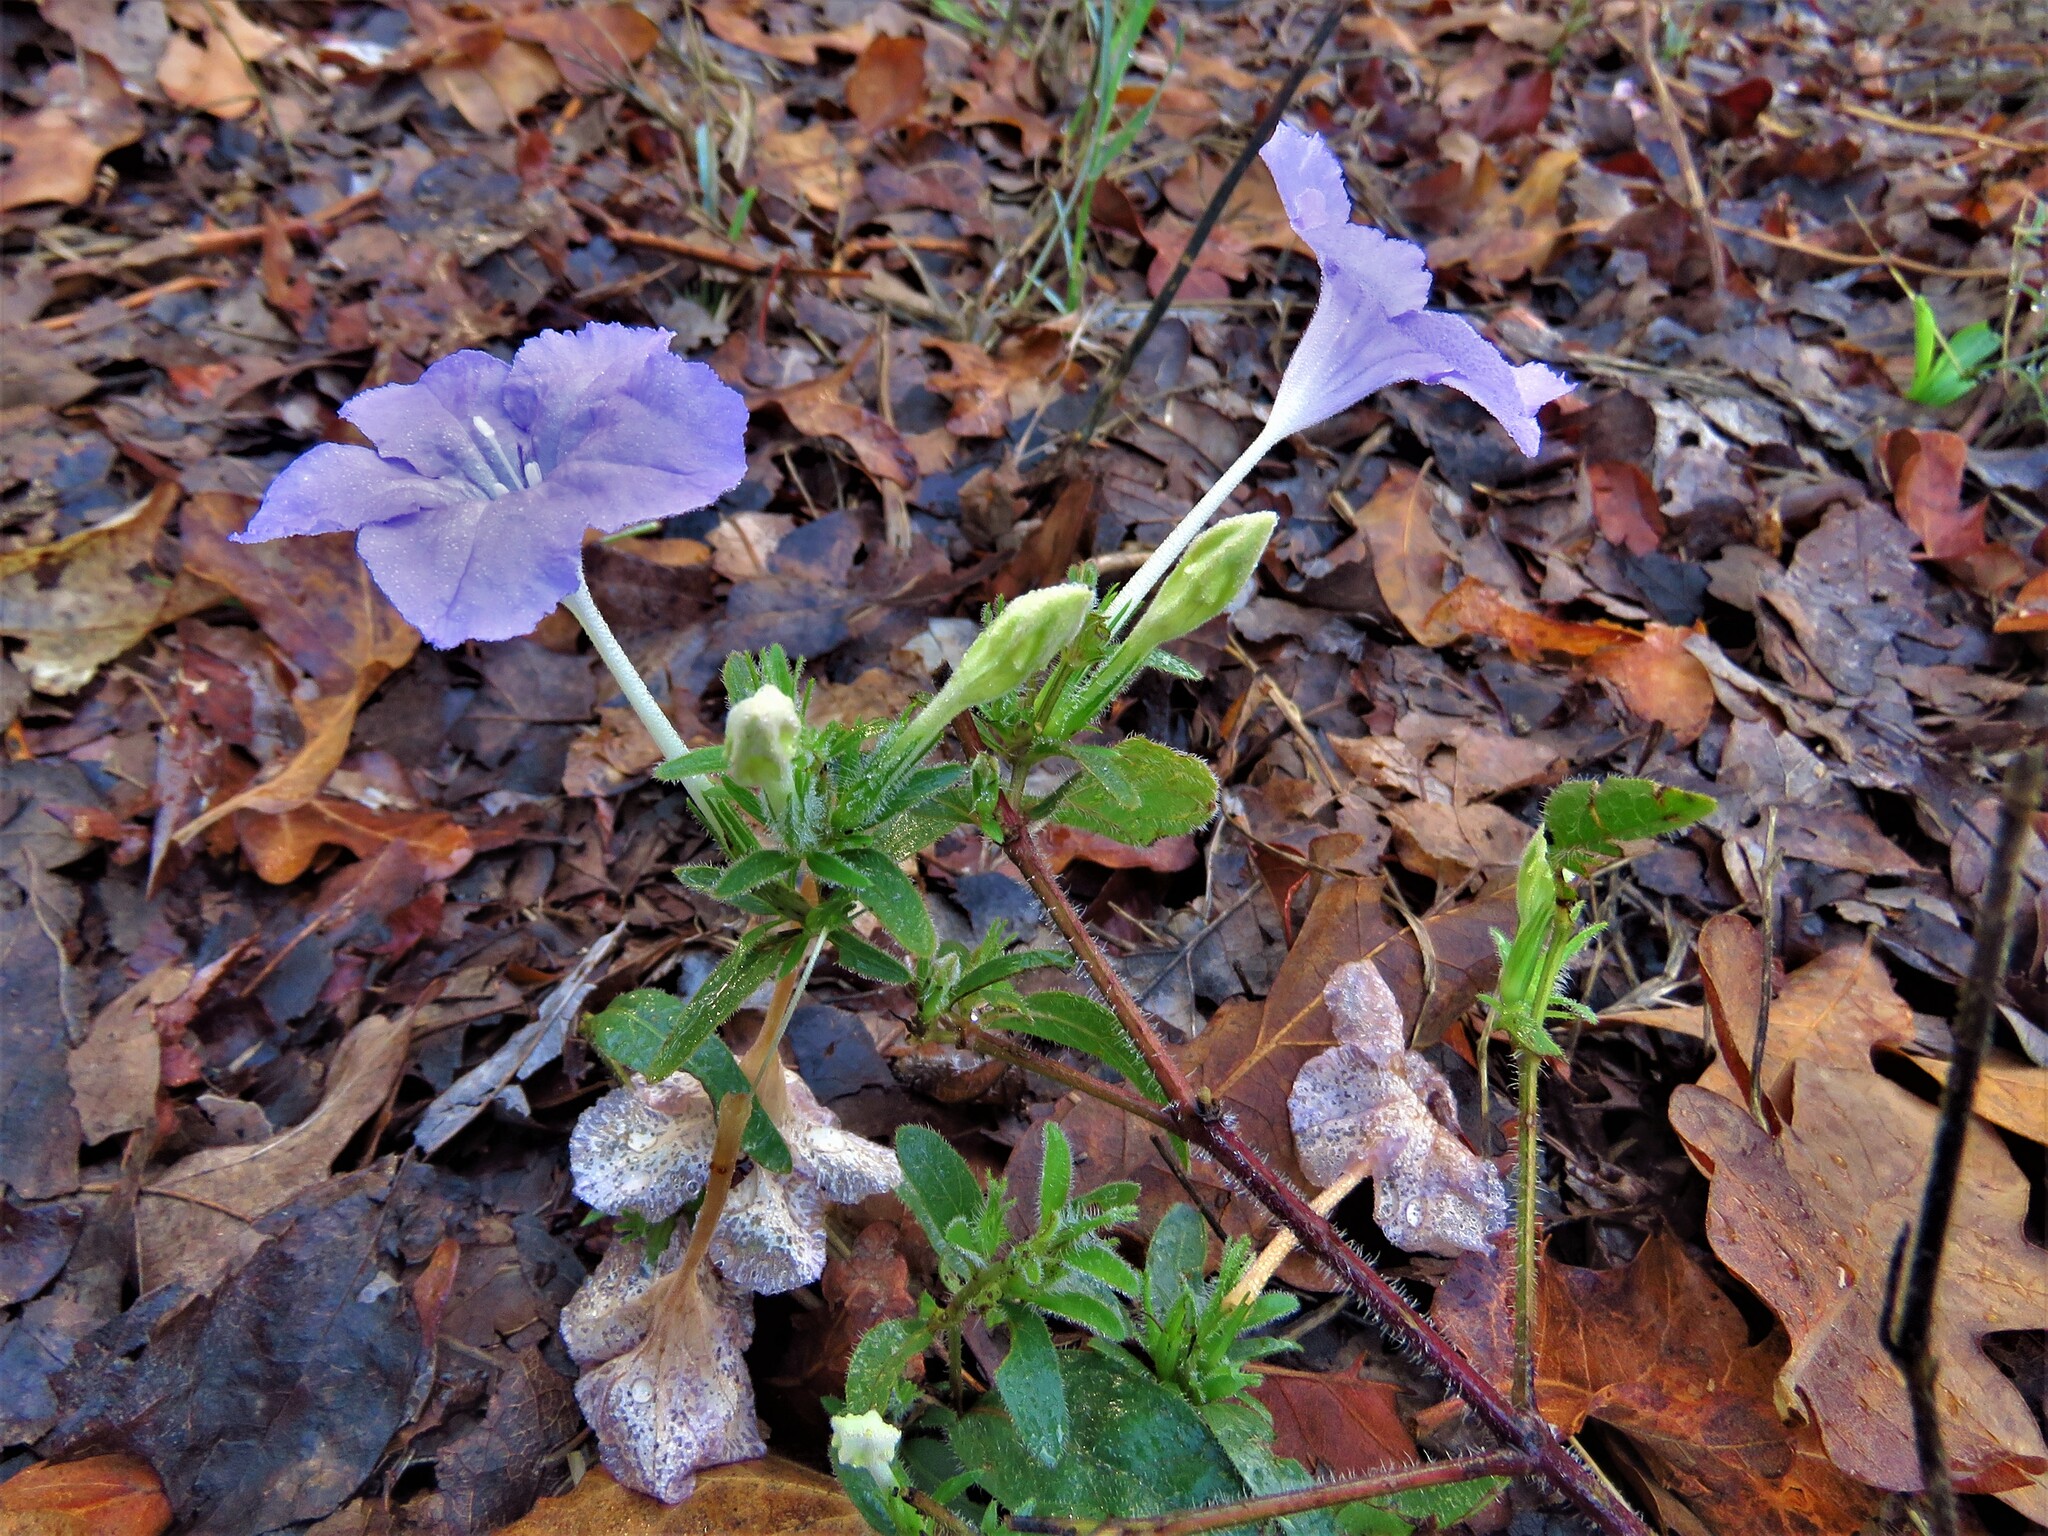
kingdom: Plantae
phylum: Tracheophyta
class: Magnoliopsida
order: Lamiales
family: Acanthaceae
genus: Ruellia
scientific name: Ruellia humilis
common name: Fringe-leaf ruellia
